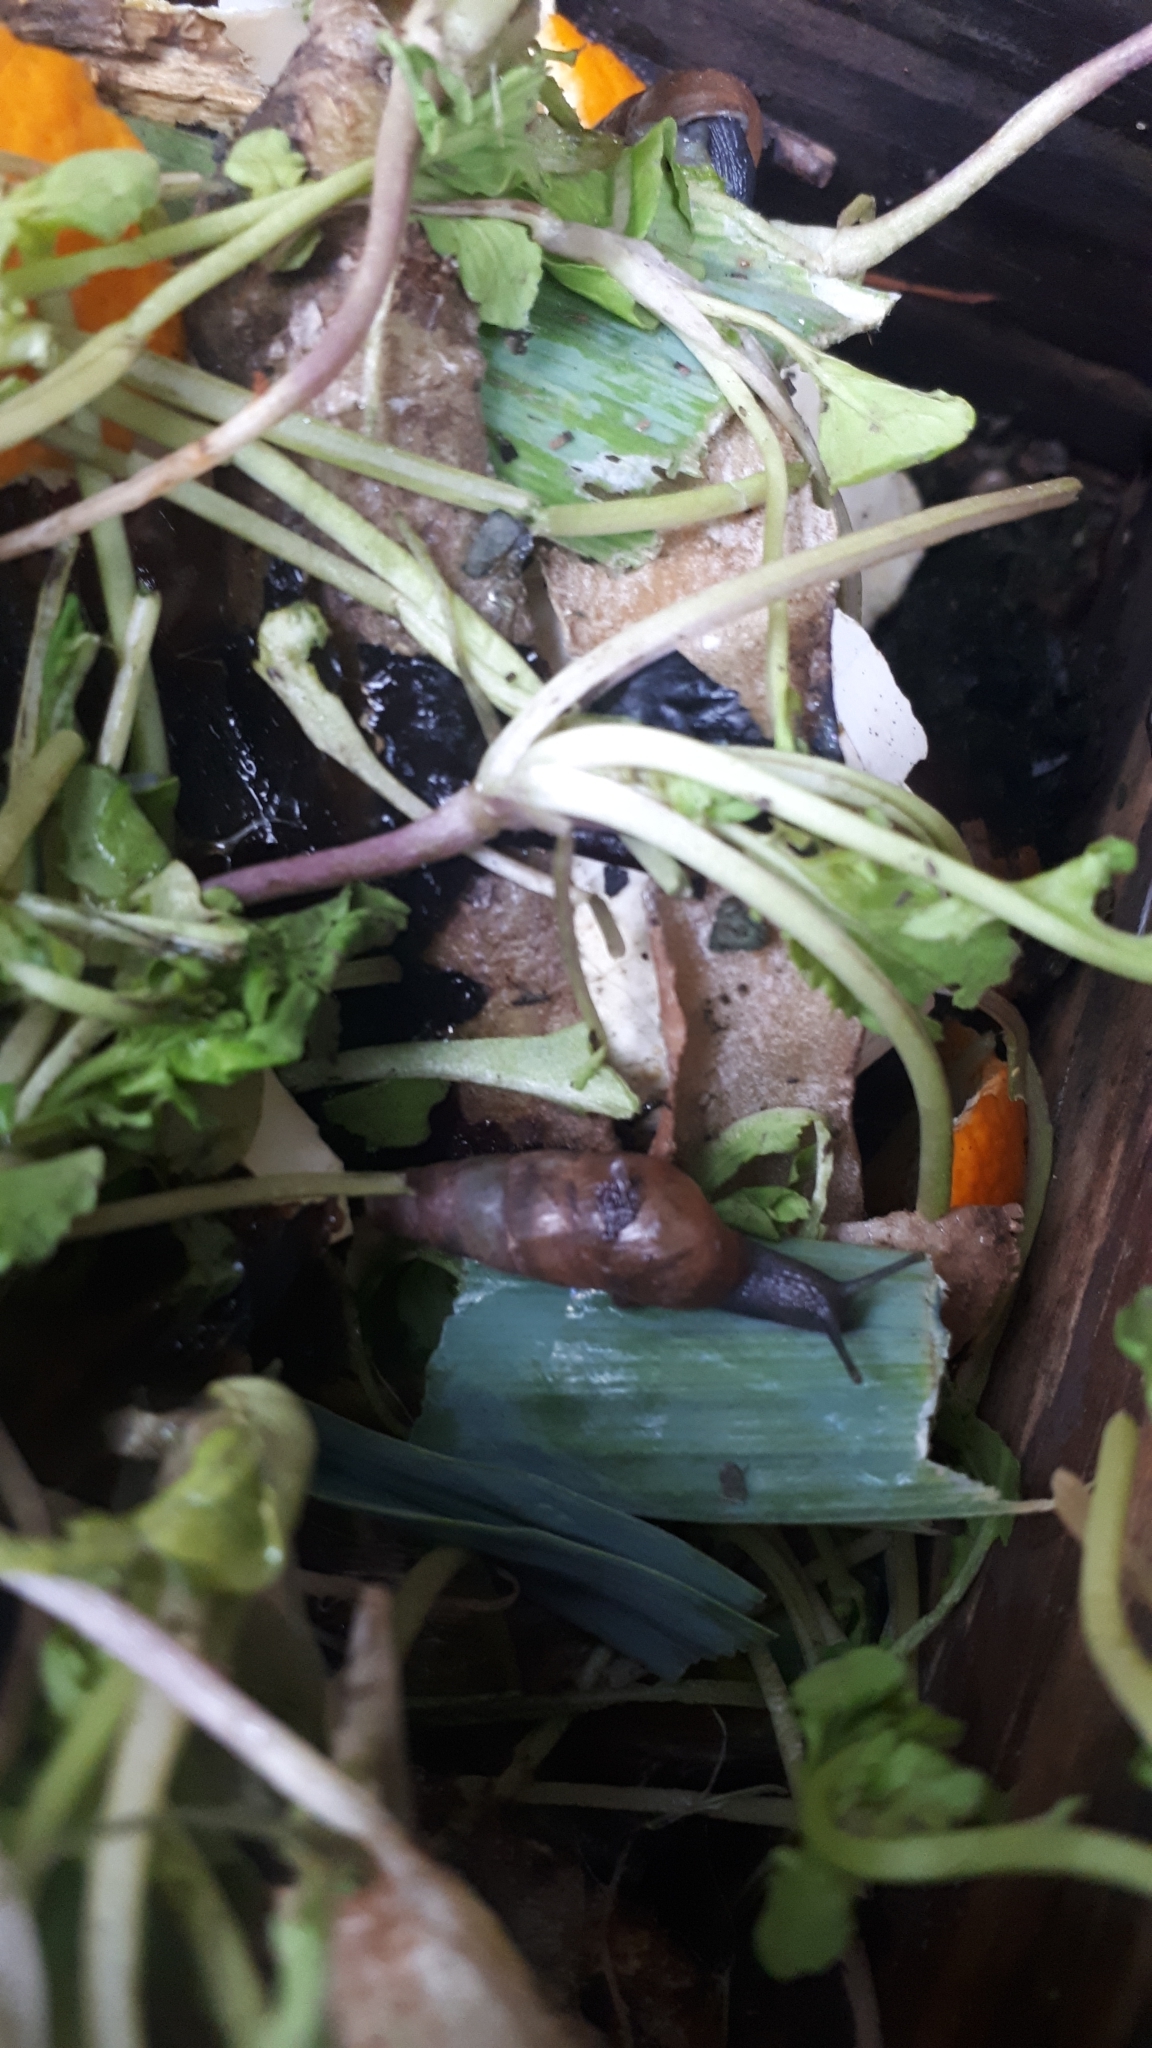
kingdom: Animalia
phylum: Mollusca
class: Gastropoda
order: Stylommatophora
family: Achatinidae
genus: Rumina
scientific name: Rumina decollata
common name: Decollate snail
